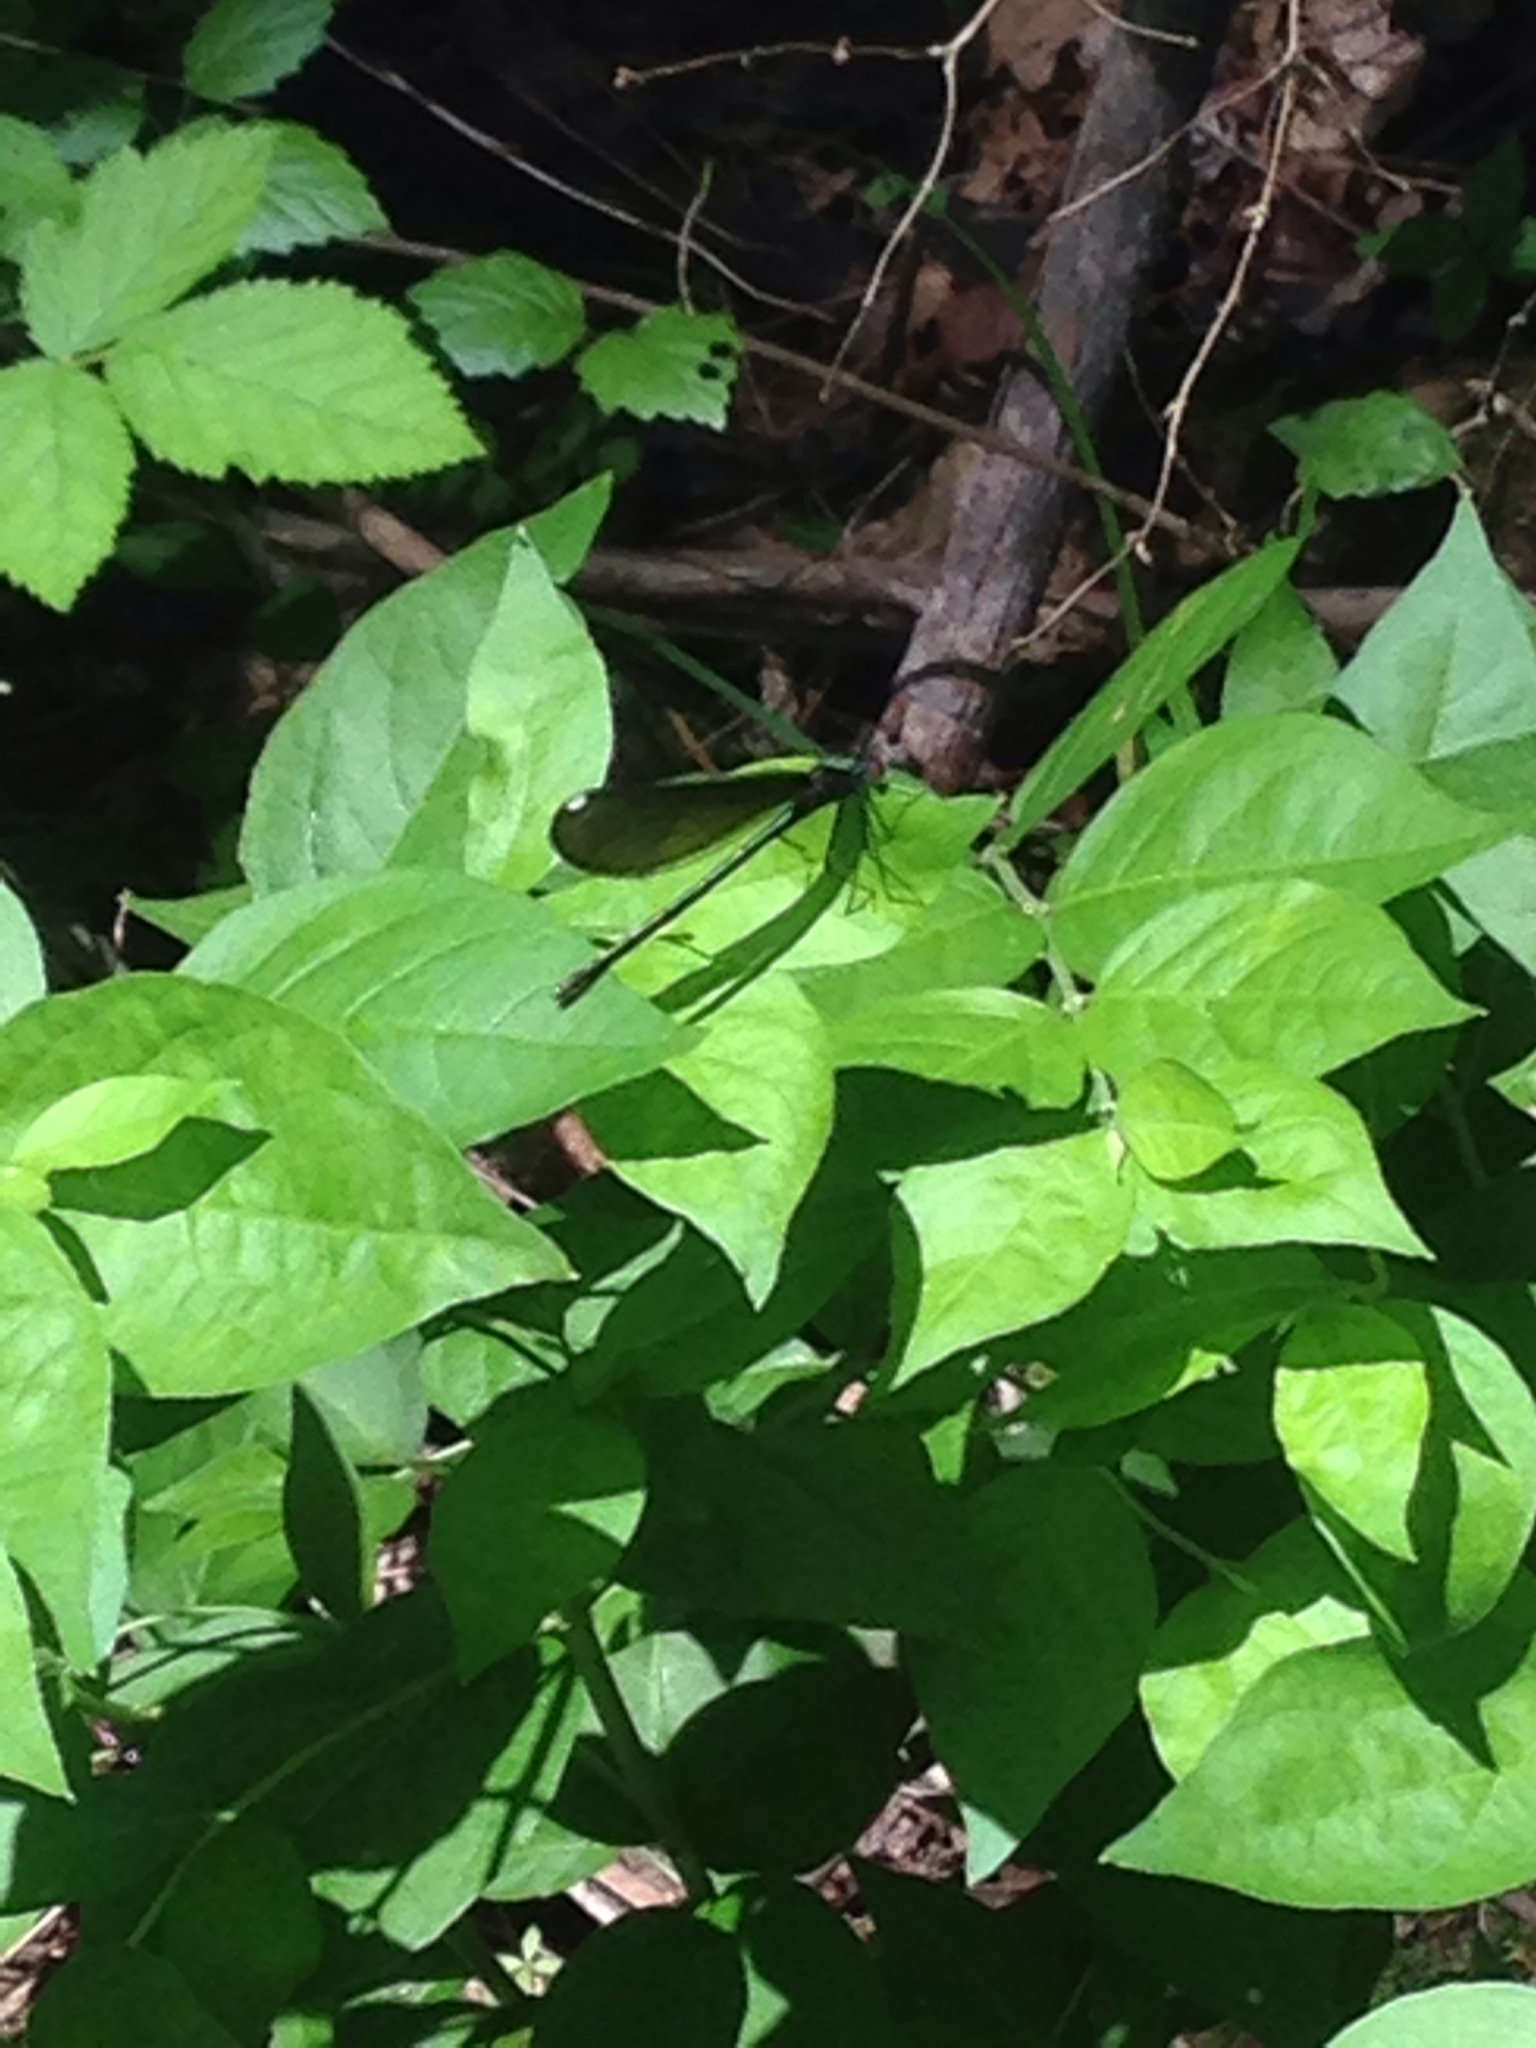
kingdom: Animalia
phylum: Arthropoda
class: Insecta
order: Odonata
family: Calopterygidae
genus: Calopteryx
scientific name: Calopteryx maculata
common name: Ebony jewelwing
